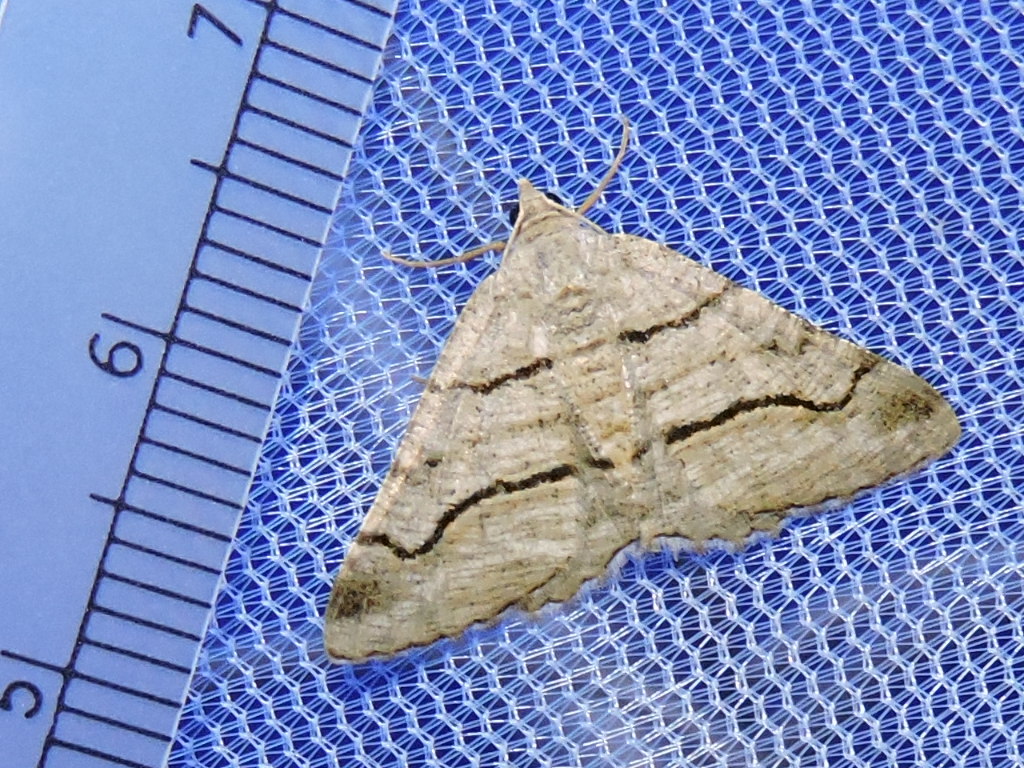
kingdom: Animalia
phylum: Arthropoda
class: Insecta
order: Lepidoptera
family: Geometridae
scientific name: Geometridae
